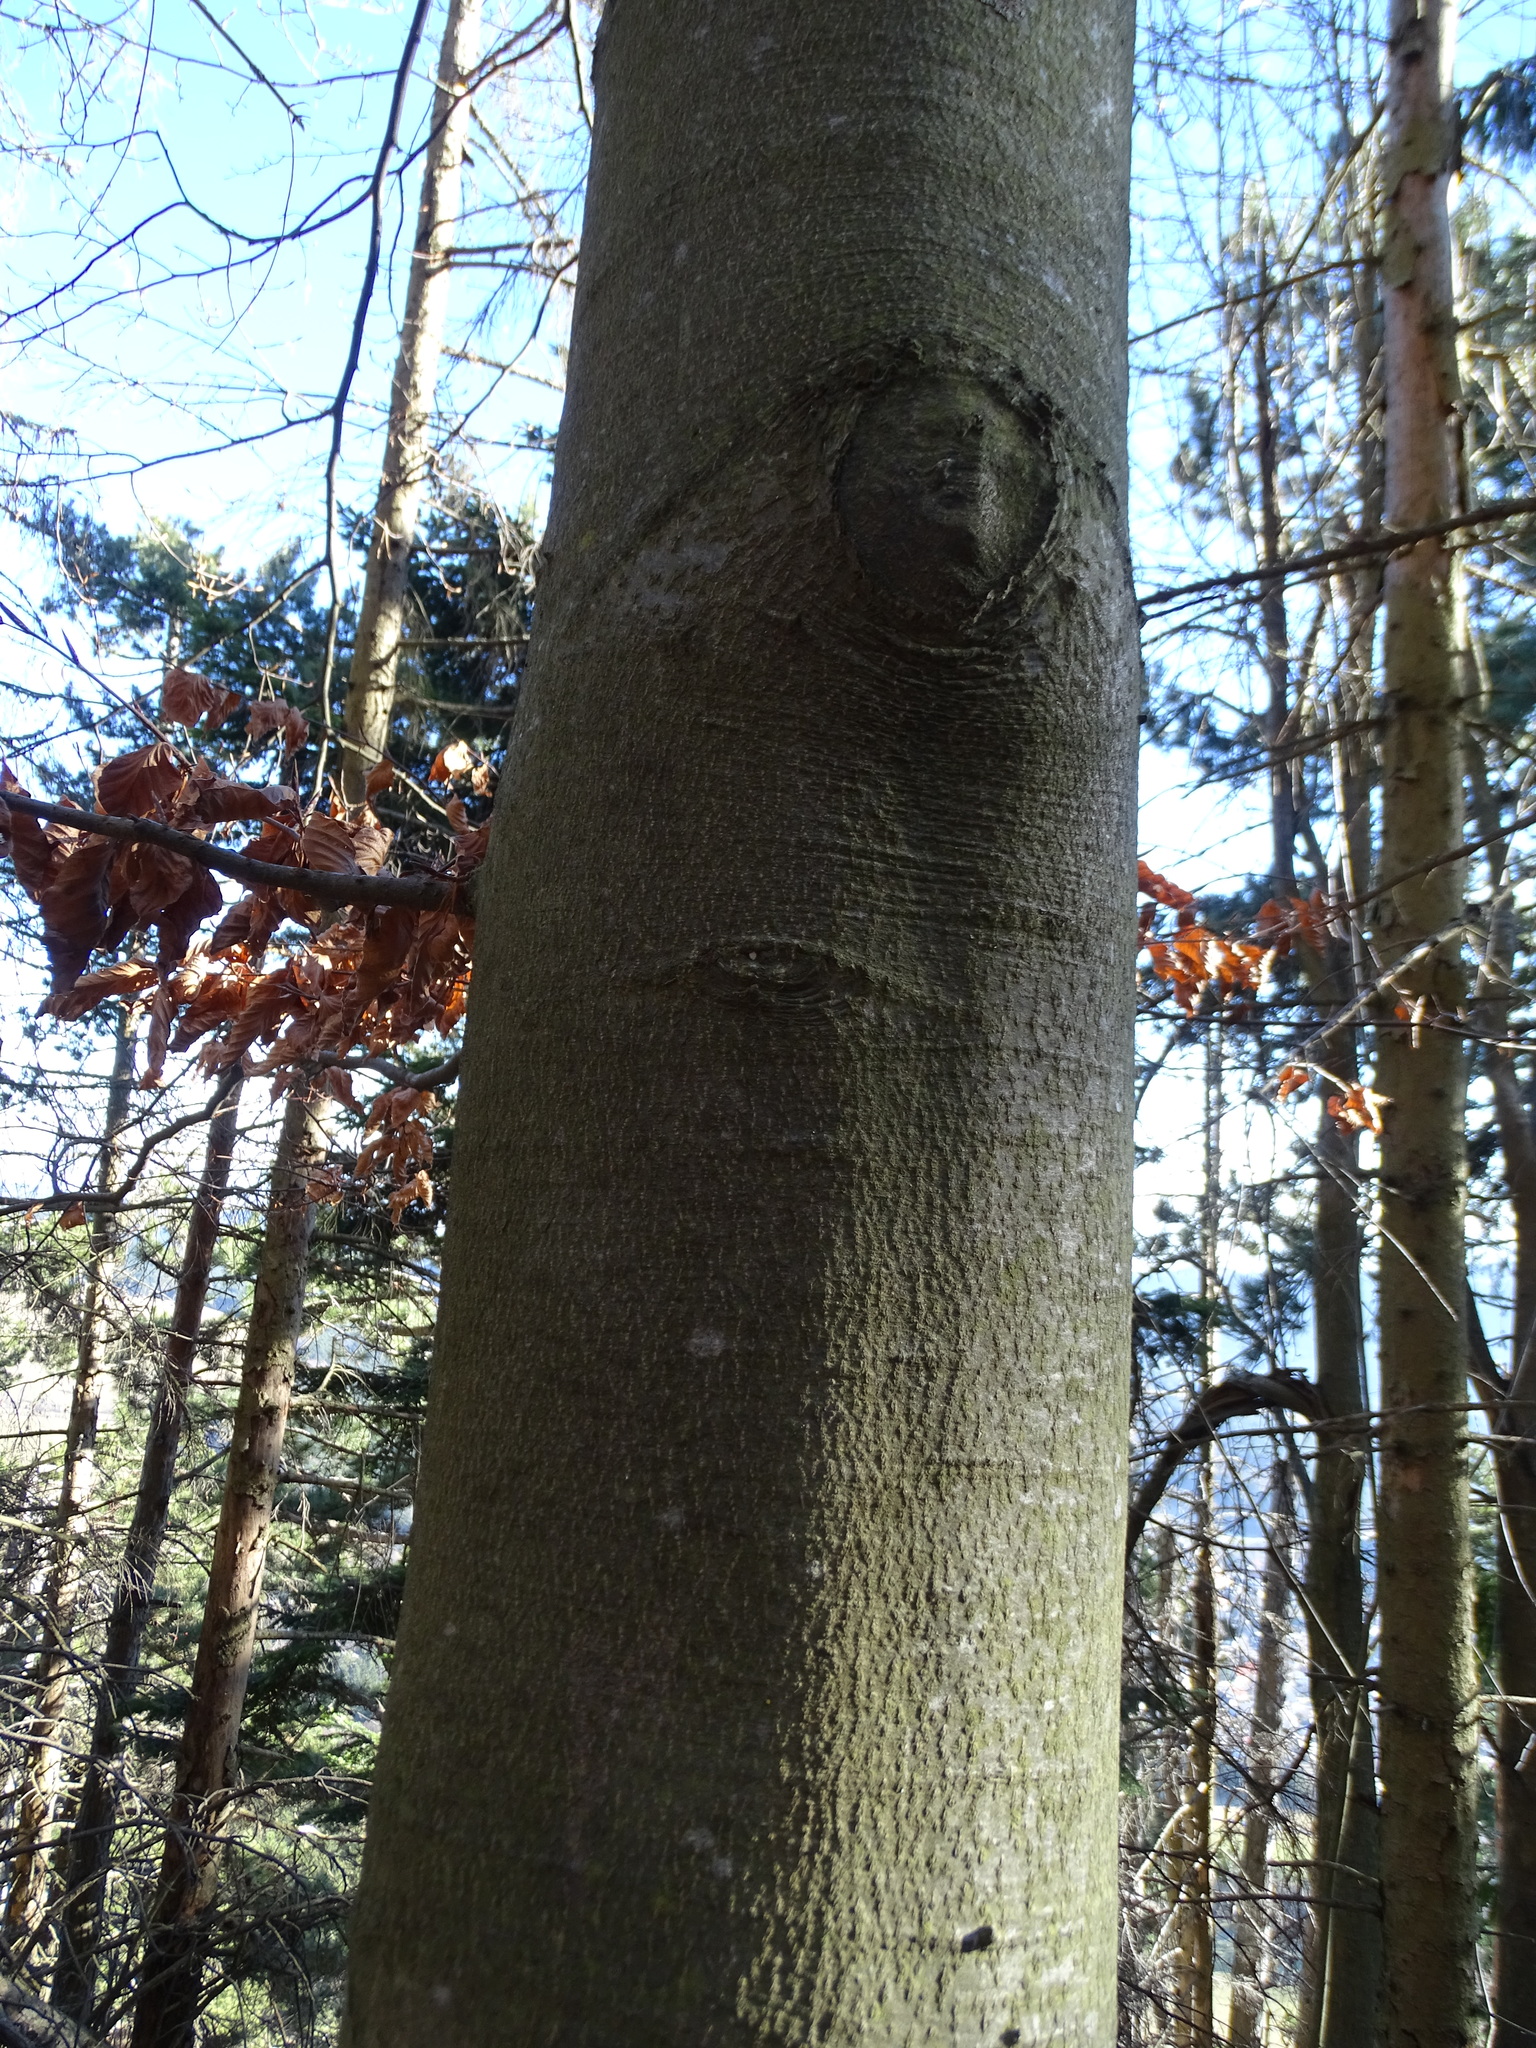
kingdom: Plantae
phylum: Tracheophyta
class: Magnoliopsida
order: Fagales
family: Fagaceae
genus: Fagus
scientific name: Fagus sylvatica
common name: Beech
